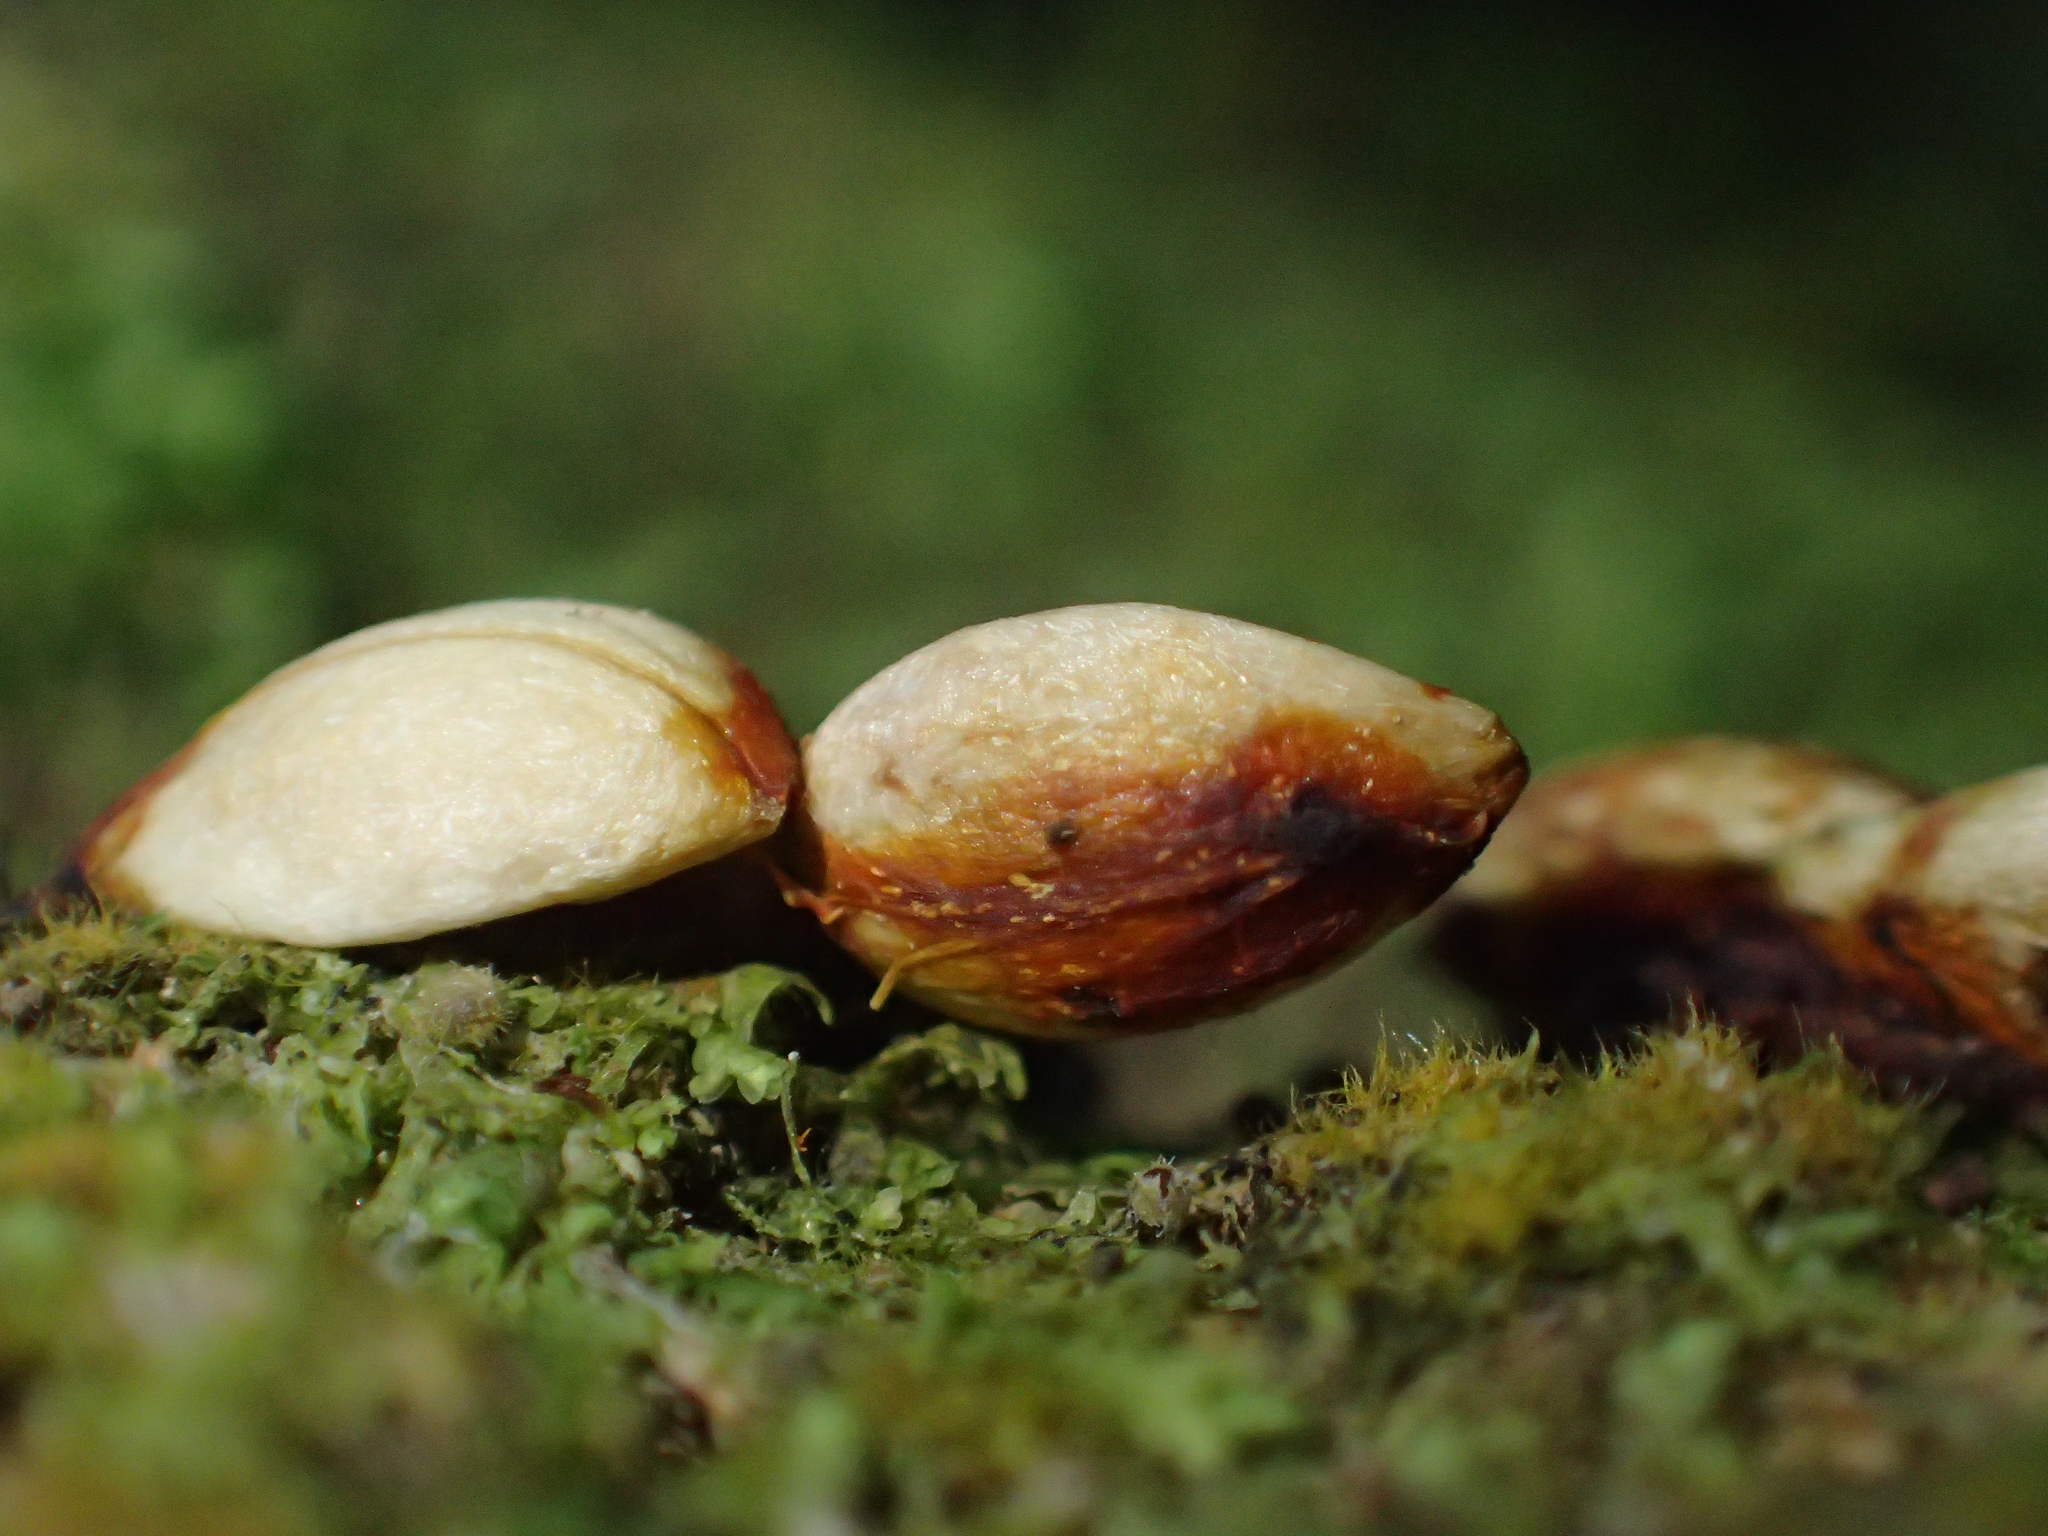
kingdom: Plantae
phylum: Tracheophyta
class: Magnoliopsida
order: Gentianales
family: Rubiaceae
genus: Coprosma
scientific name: Coprosma repens
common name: Tree bedstraw
